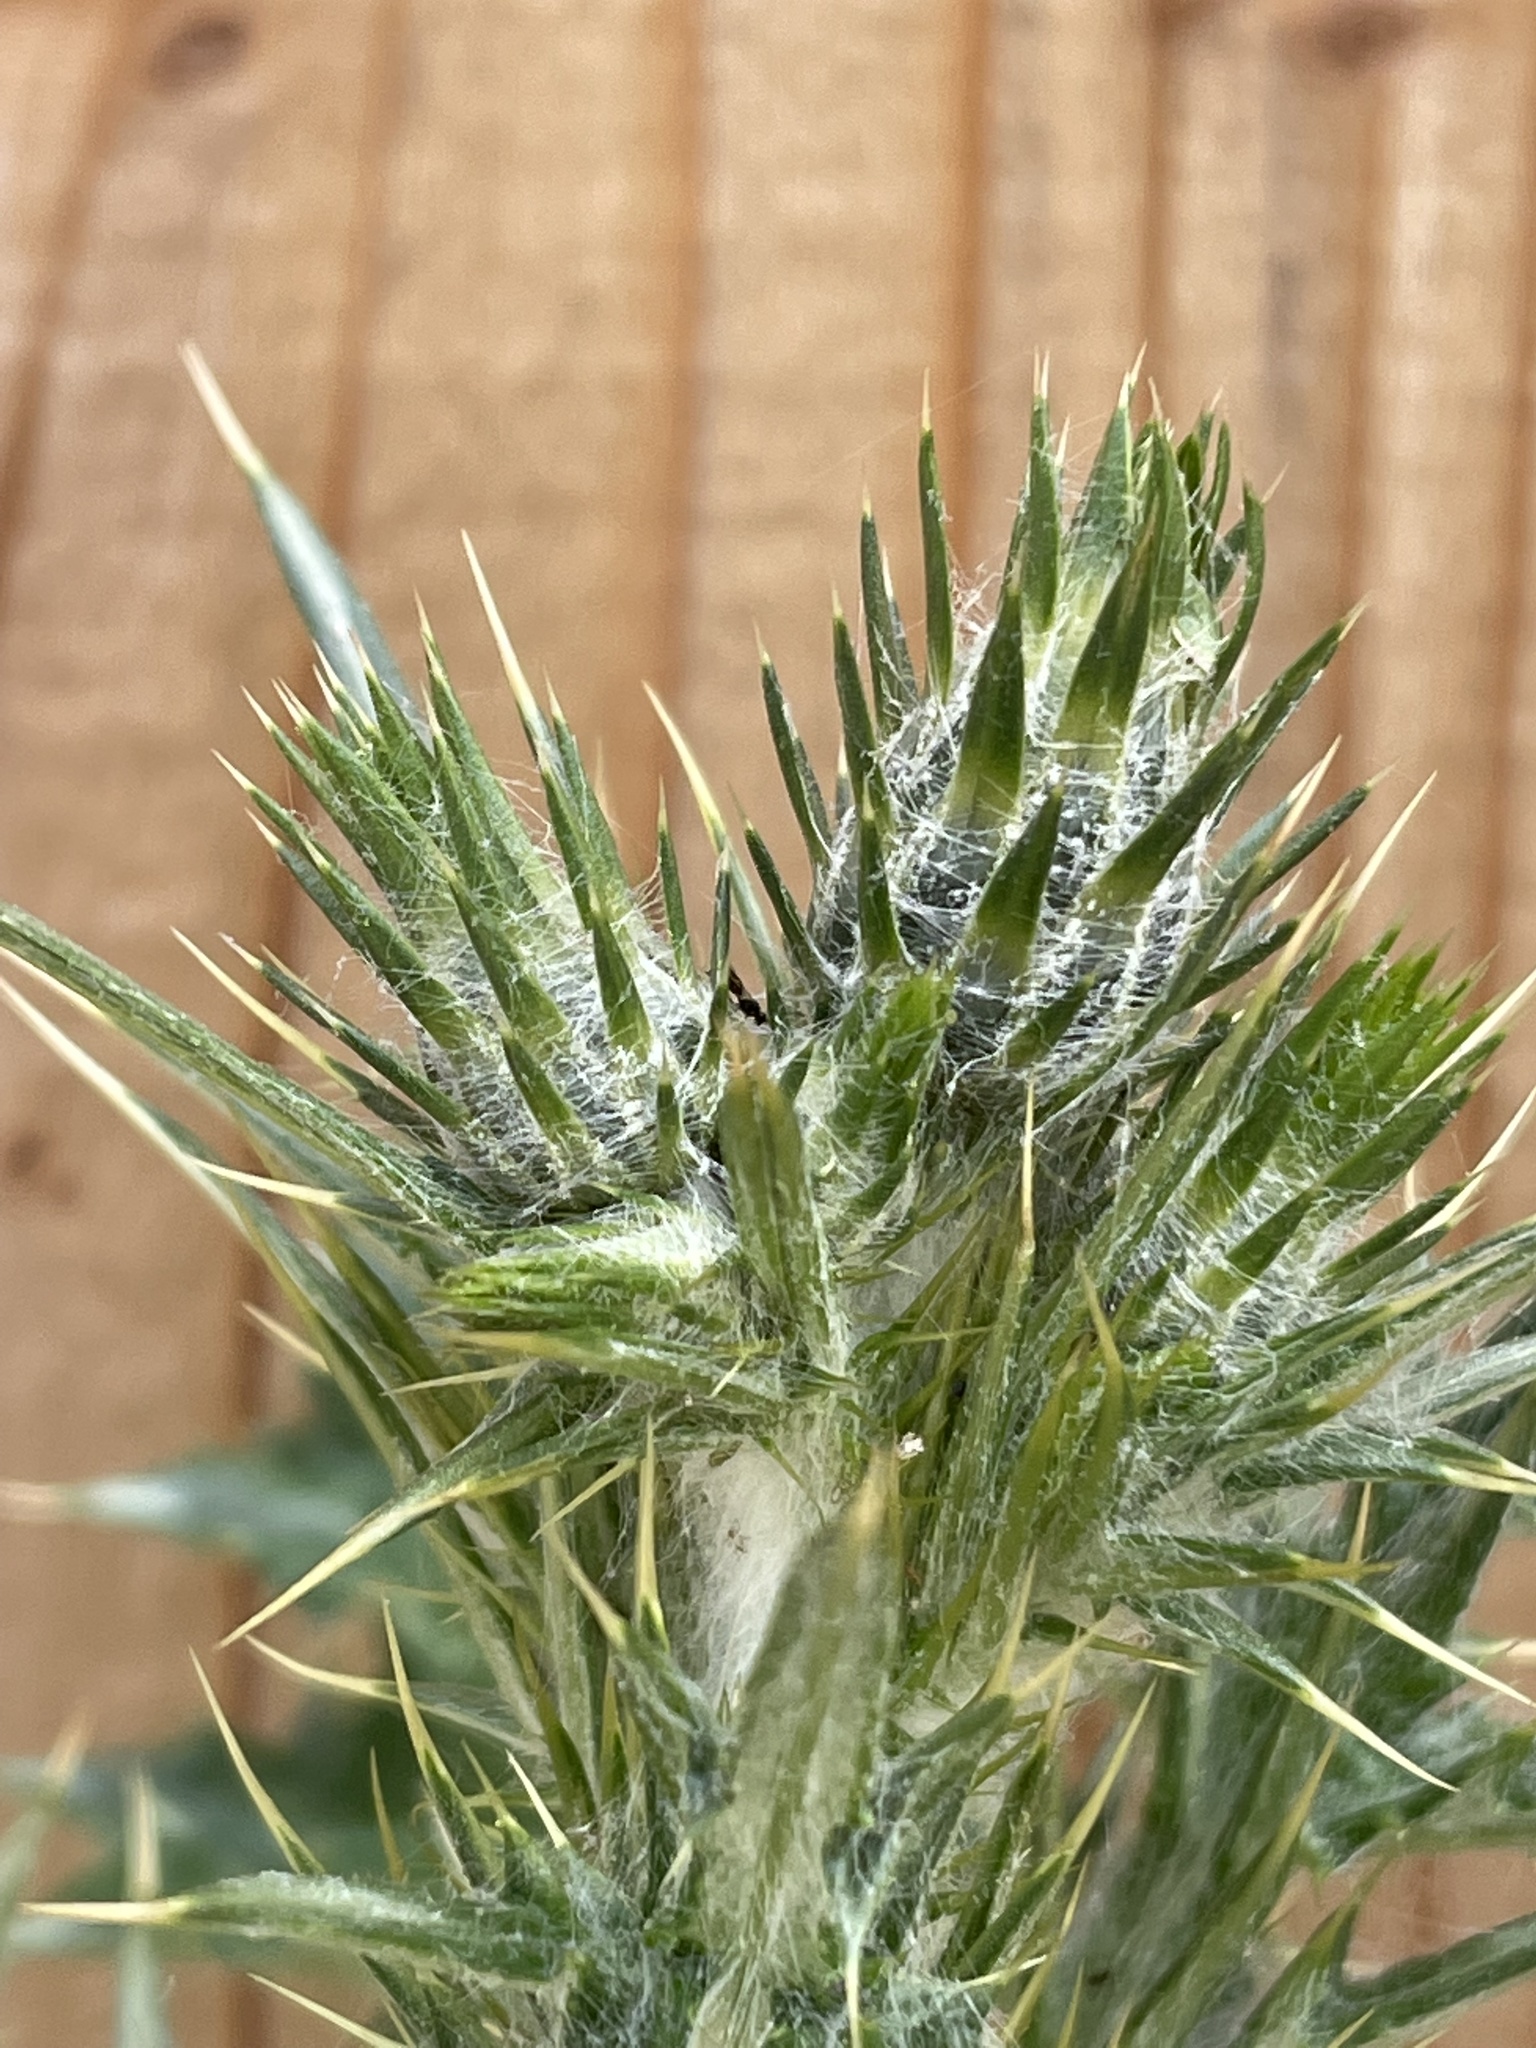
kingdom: Plantae
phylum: Tracheophyta
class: Magnoliopsida
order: Asterales
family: Asteraceae
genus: Carduus
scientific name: Carduus pycnocephalus
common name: Plymouth thistle
